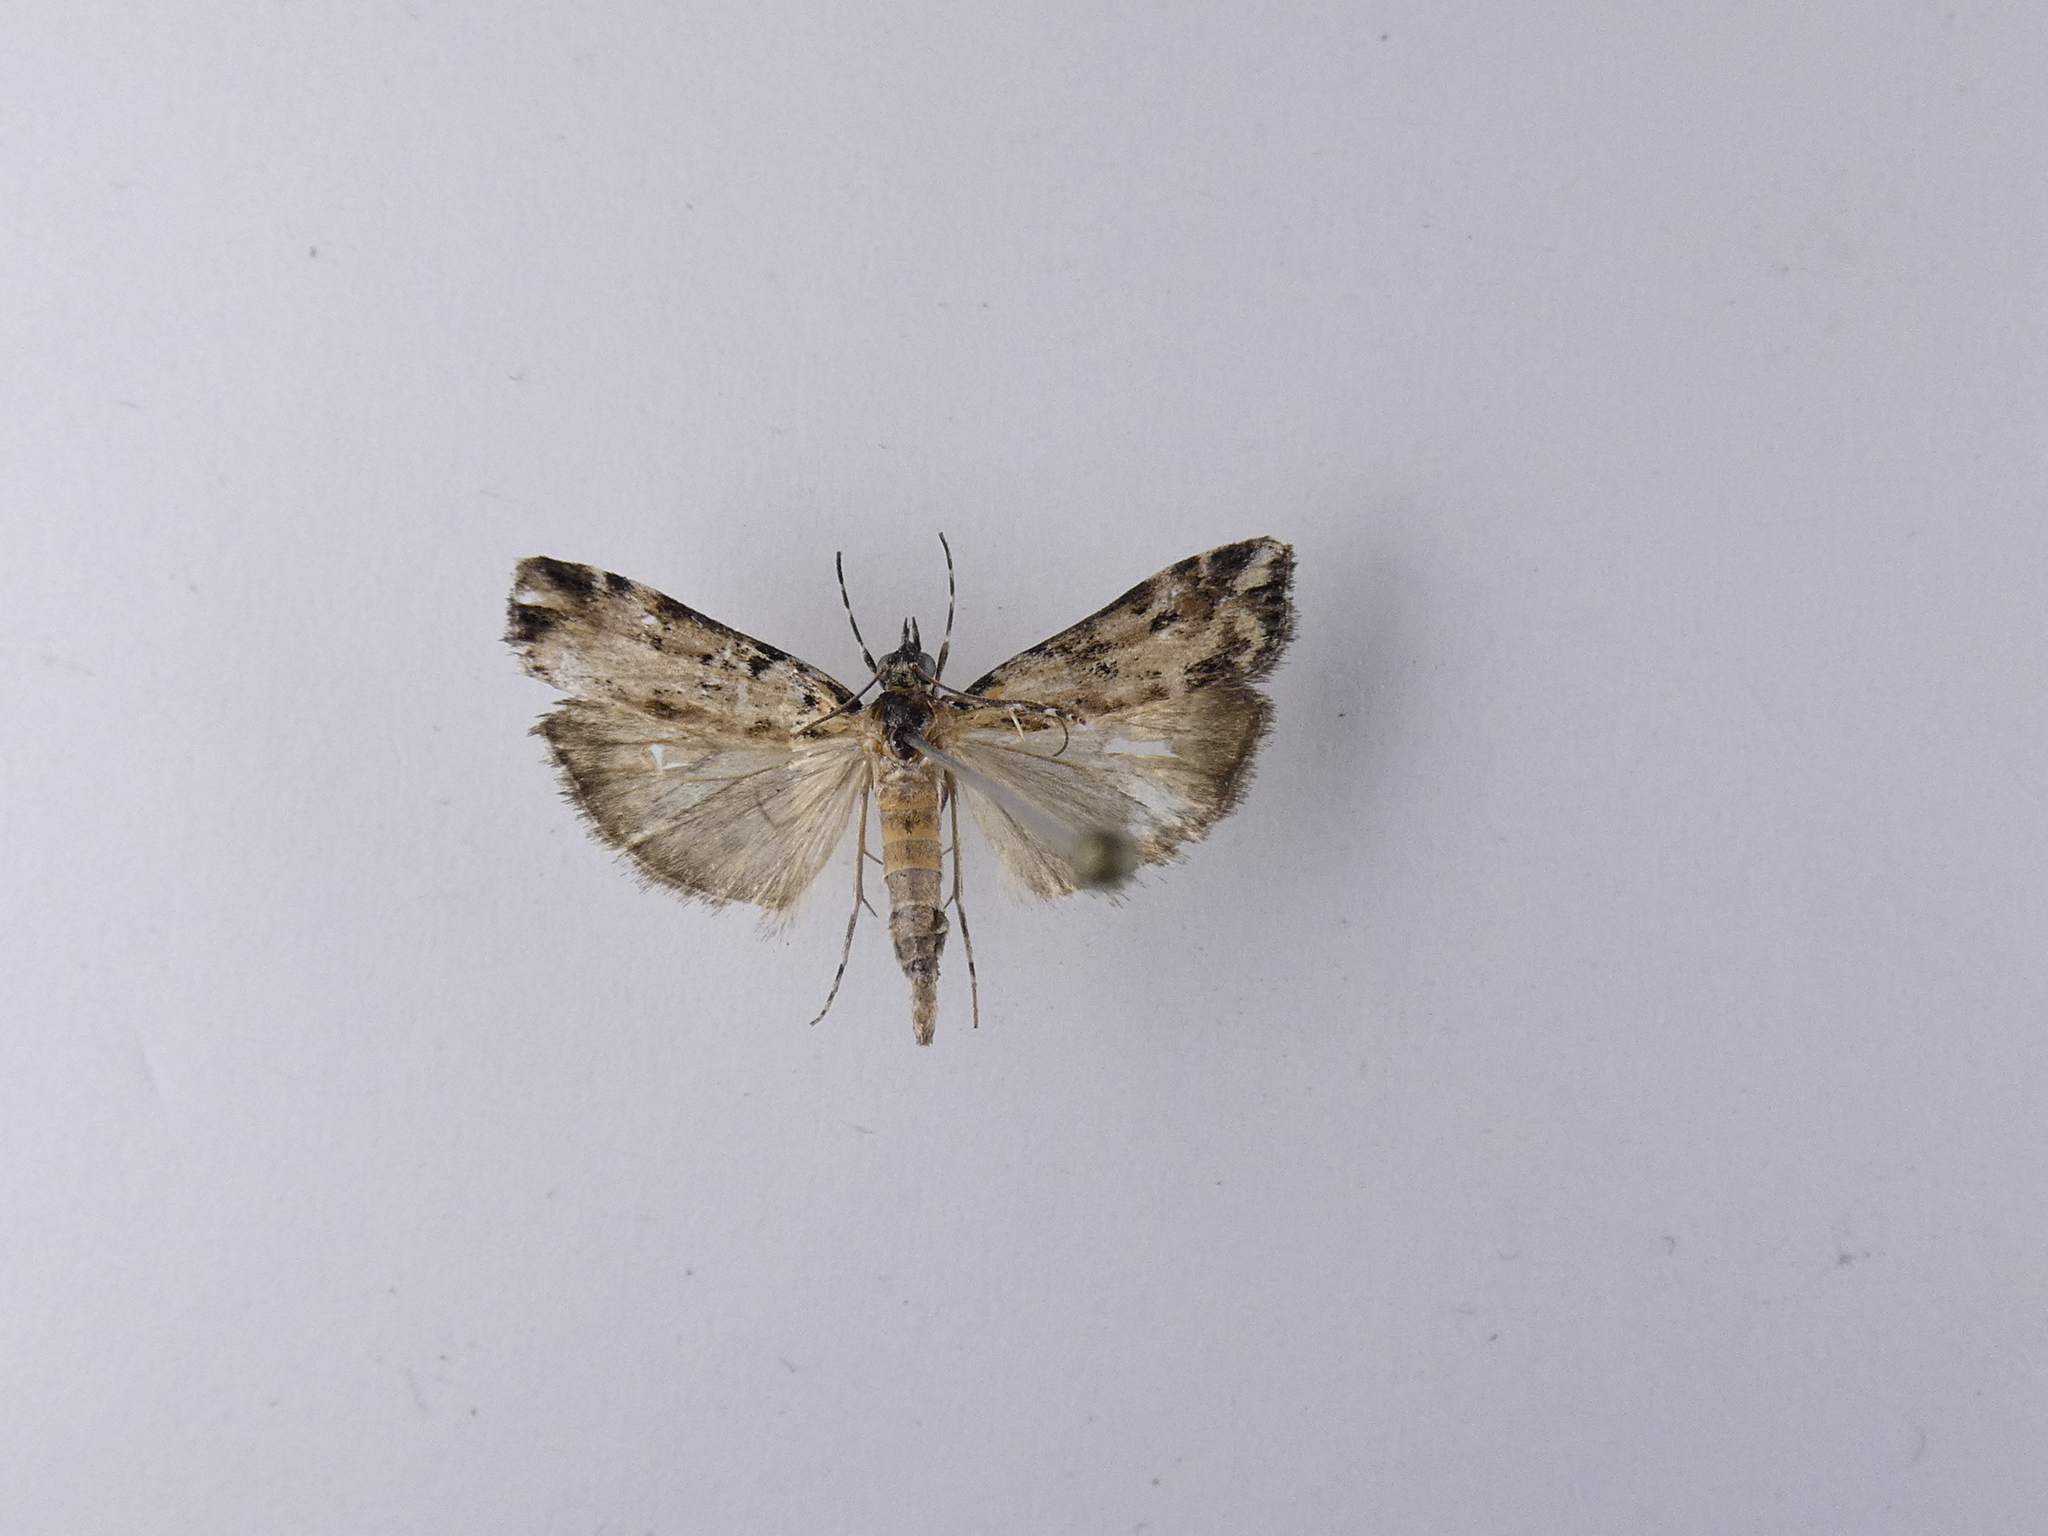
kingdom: Animalia
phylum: Arthropoda
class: Insecta
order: Lepidoptera
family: Crambidae
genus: Eudonia
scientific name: Eudonia diphtheralis
